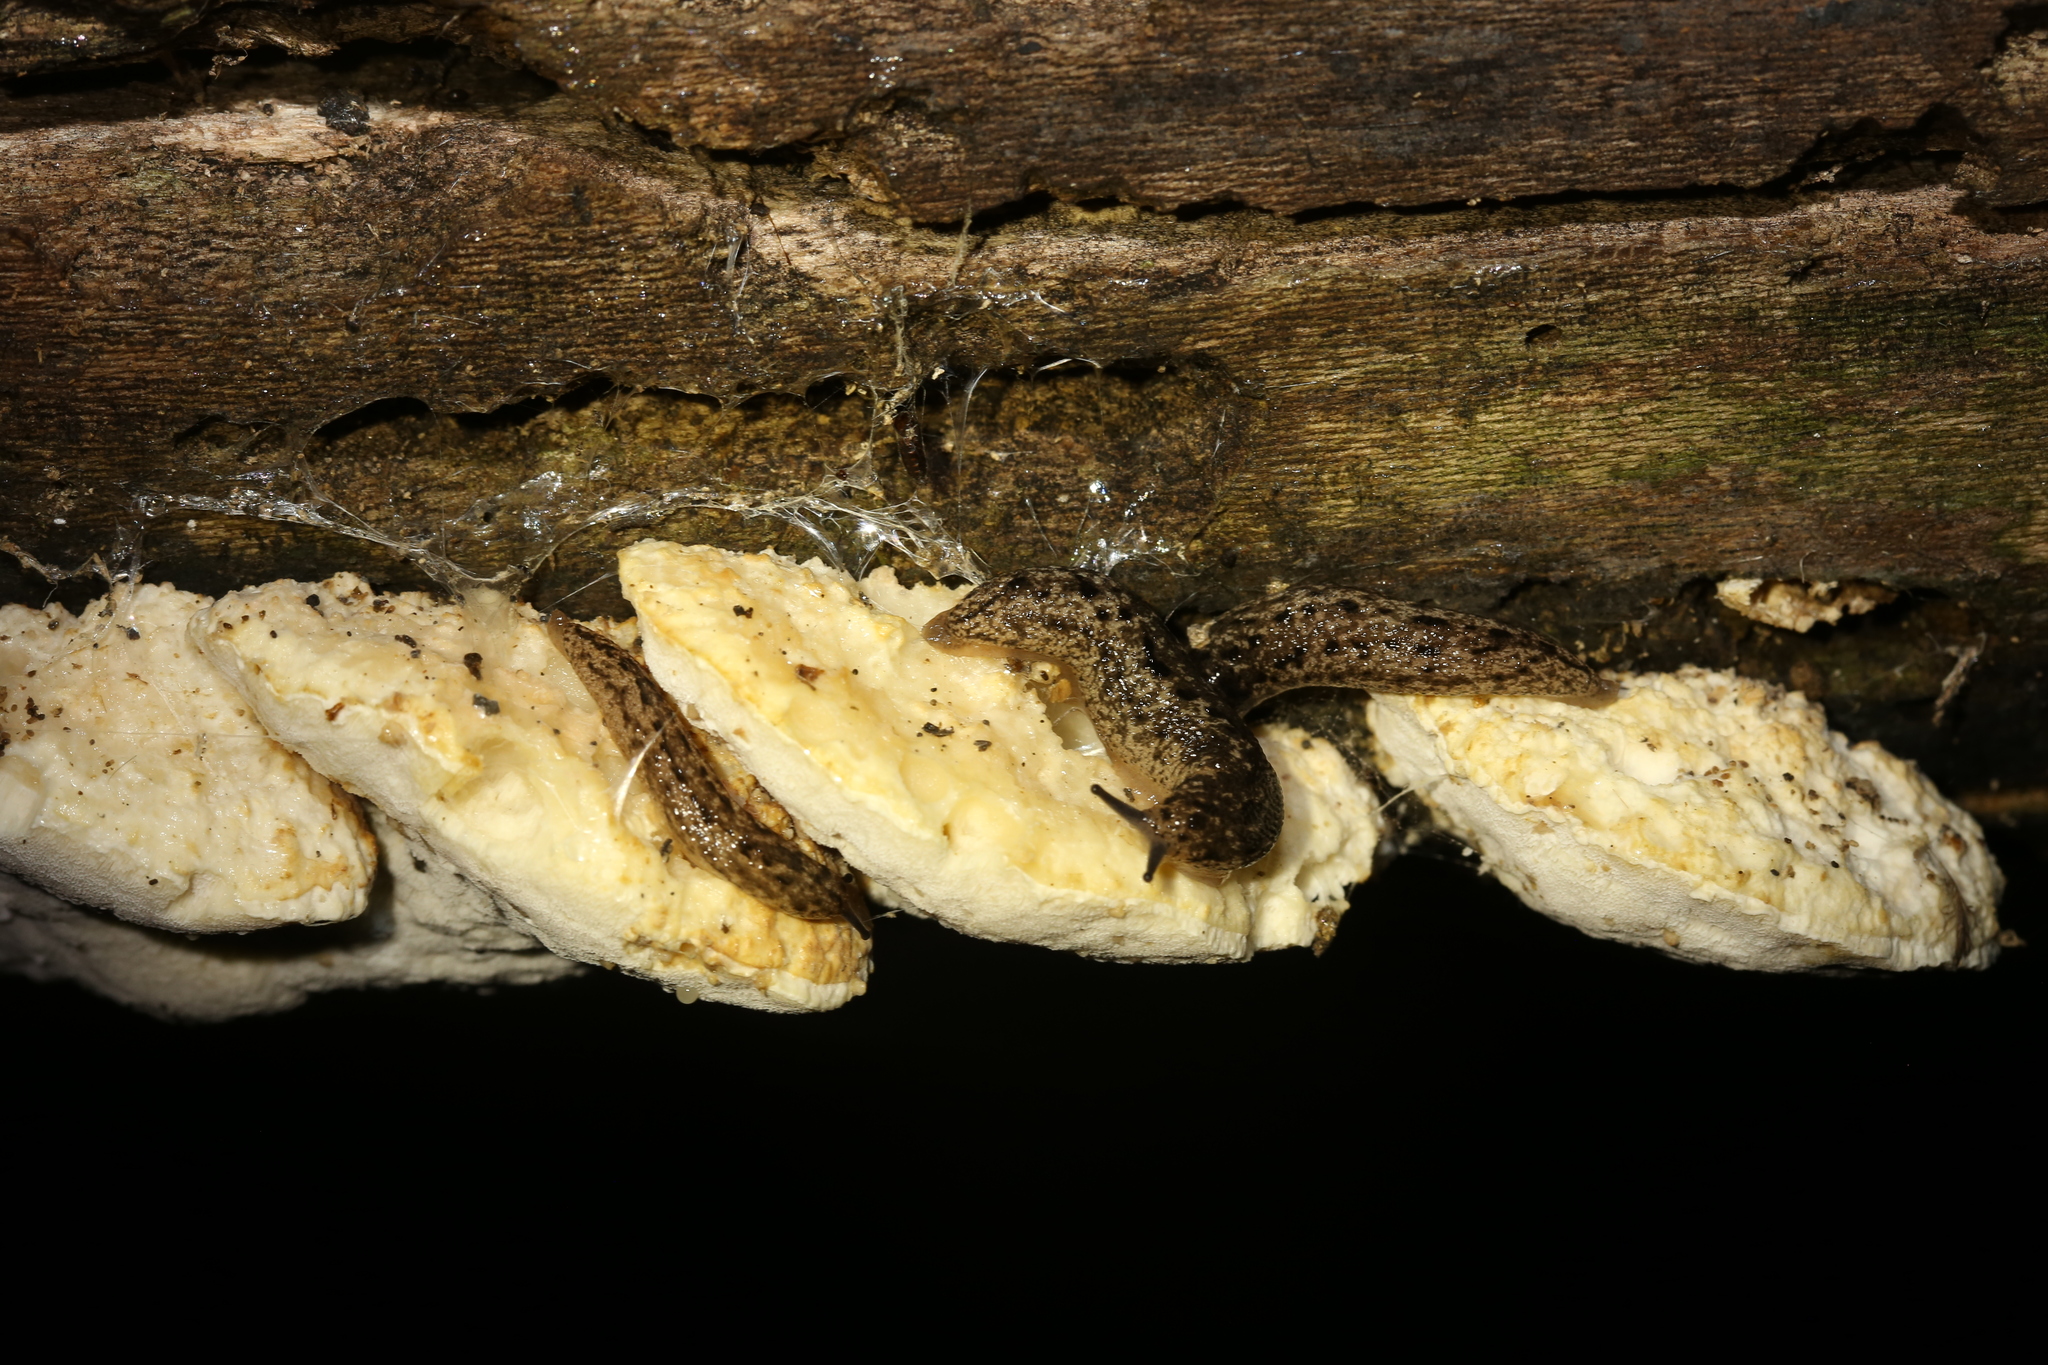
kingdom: Animalia
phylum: Mollusca
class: Gastropoda
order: Stylommatophora
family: Philomycidae
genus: Philomycus
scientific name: Philomycus carolinianus
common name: Carolina mantleslug
